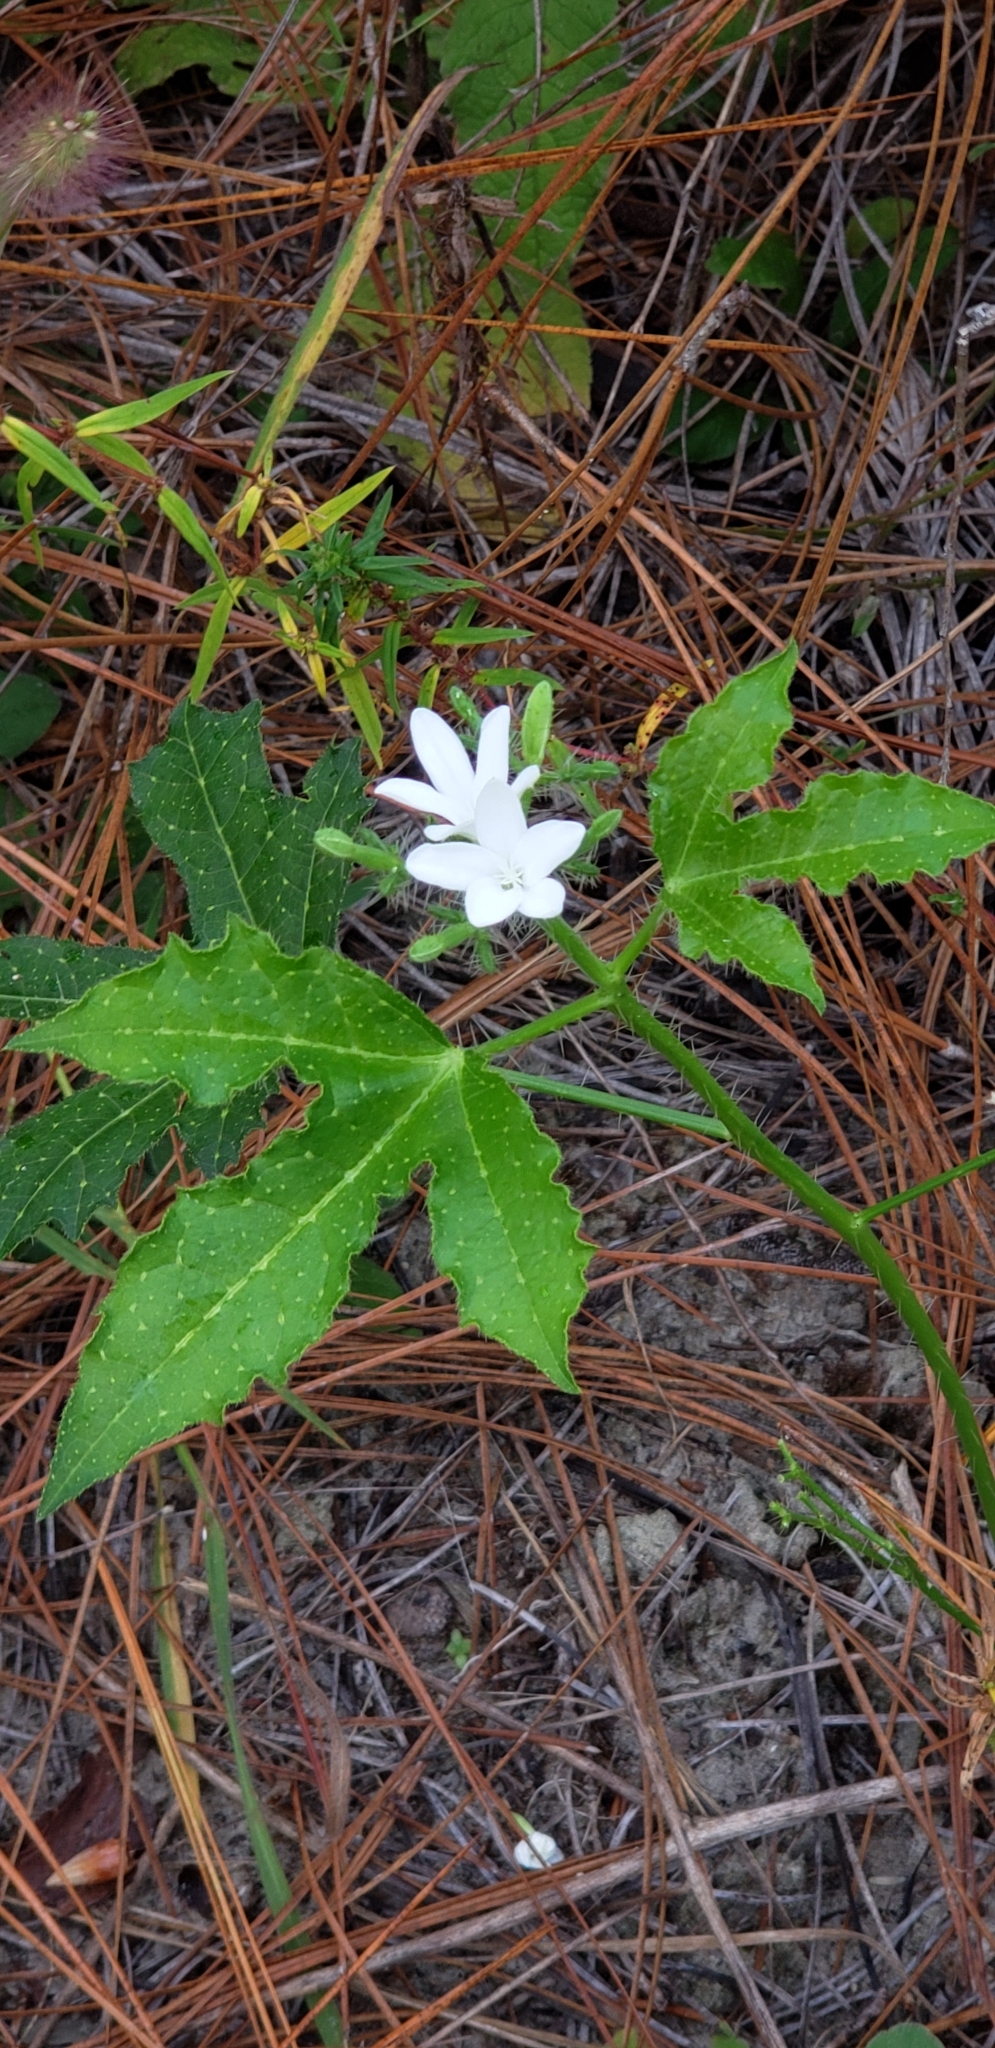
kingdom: Plantae
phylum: Tracheophyta
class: Magnoliopsida
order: Malpighiales
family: Euphorbiaceae
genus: Cnidoscolus
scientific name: Cnidoscolus stimulosus
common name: Bull-nettle
